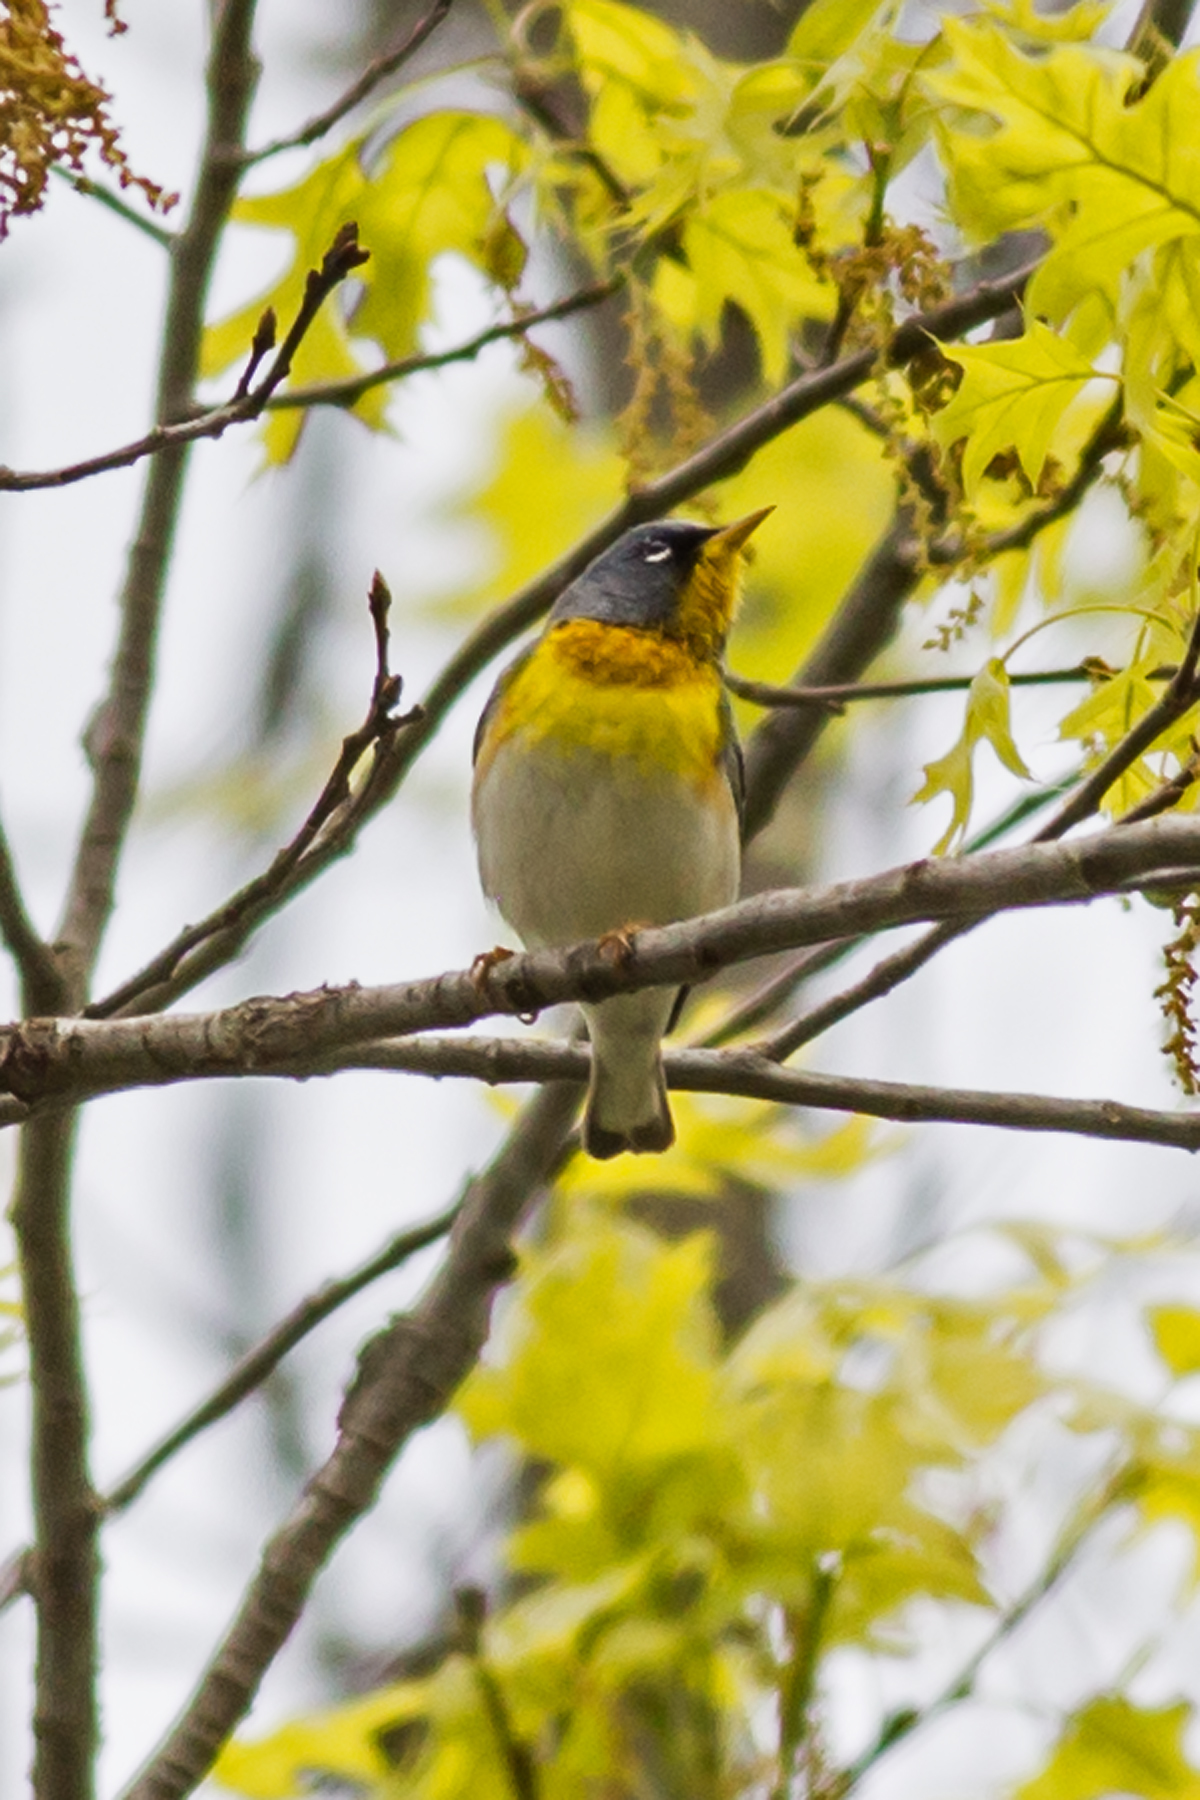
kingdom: Animalia
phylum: Chordata
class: Aves
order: Passeriformes
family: Parulidae
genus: Setophaga
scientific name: Setophaga americana
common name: Northern parula
